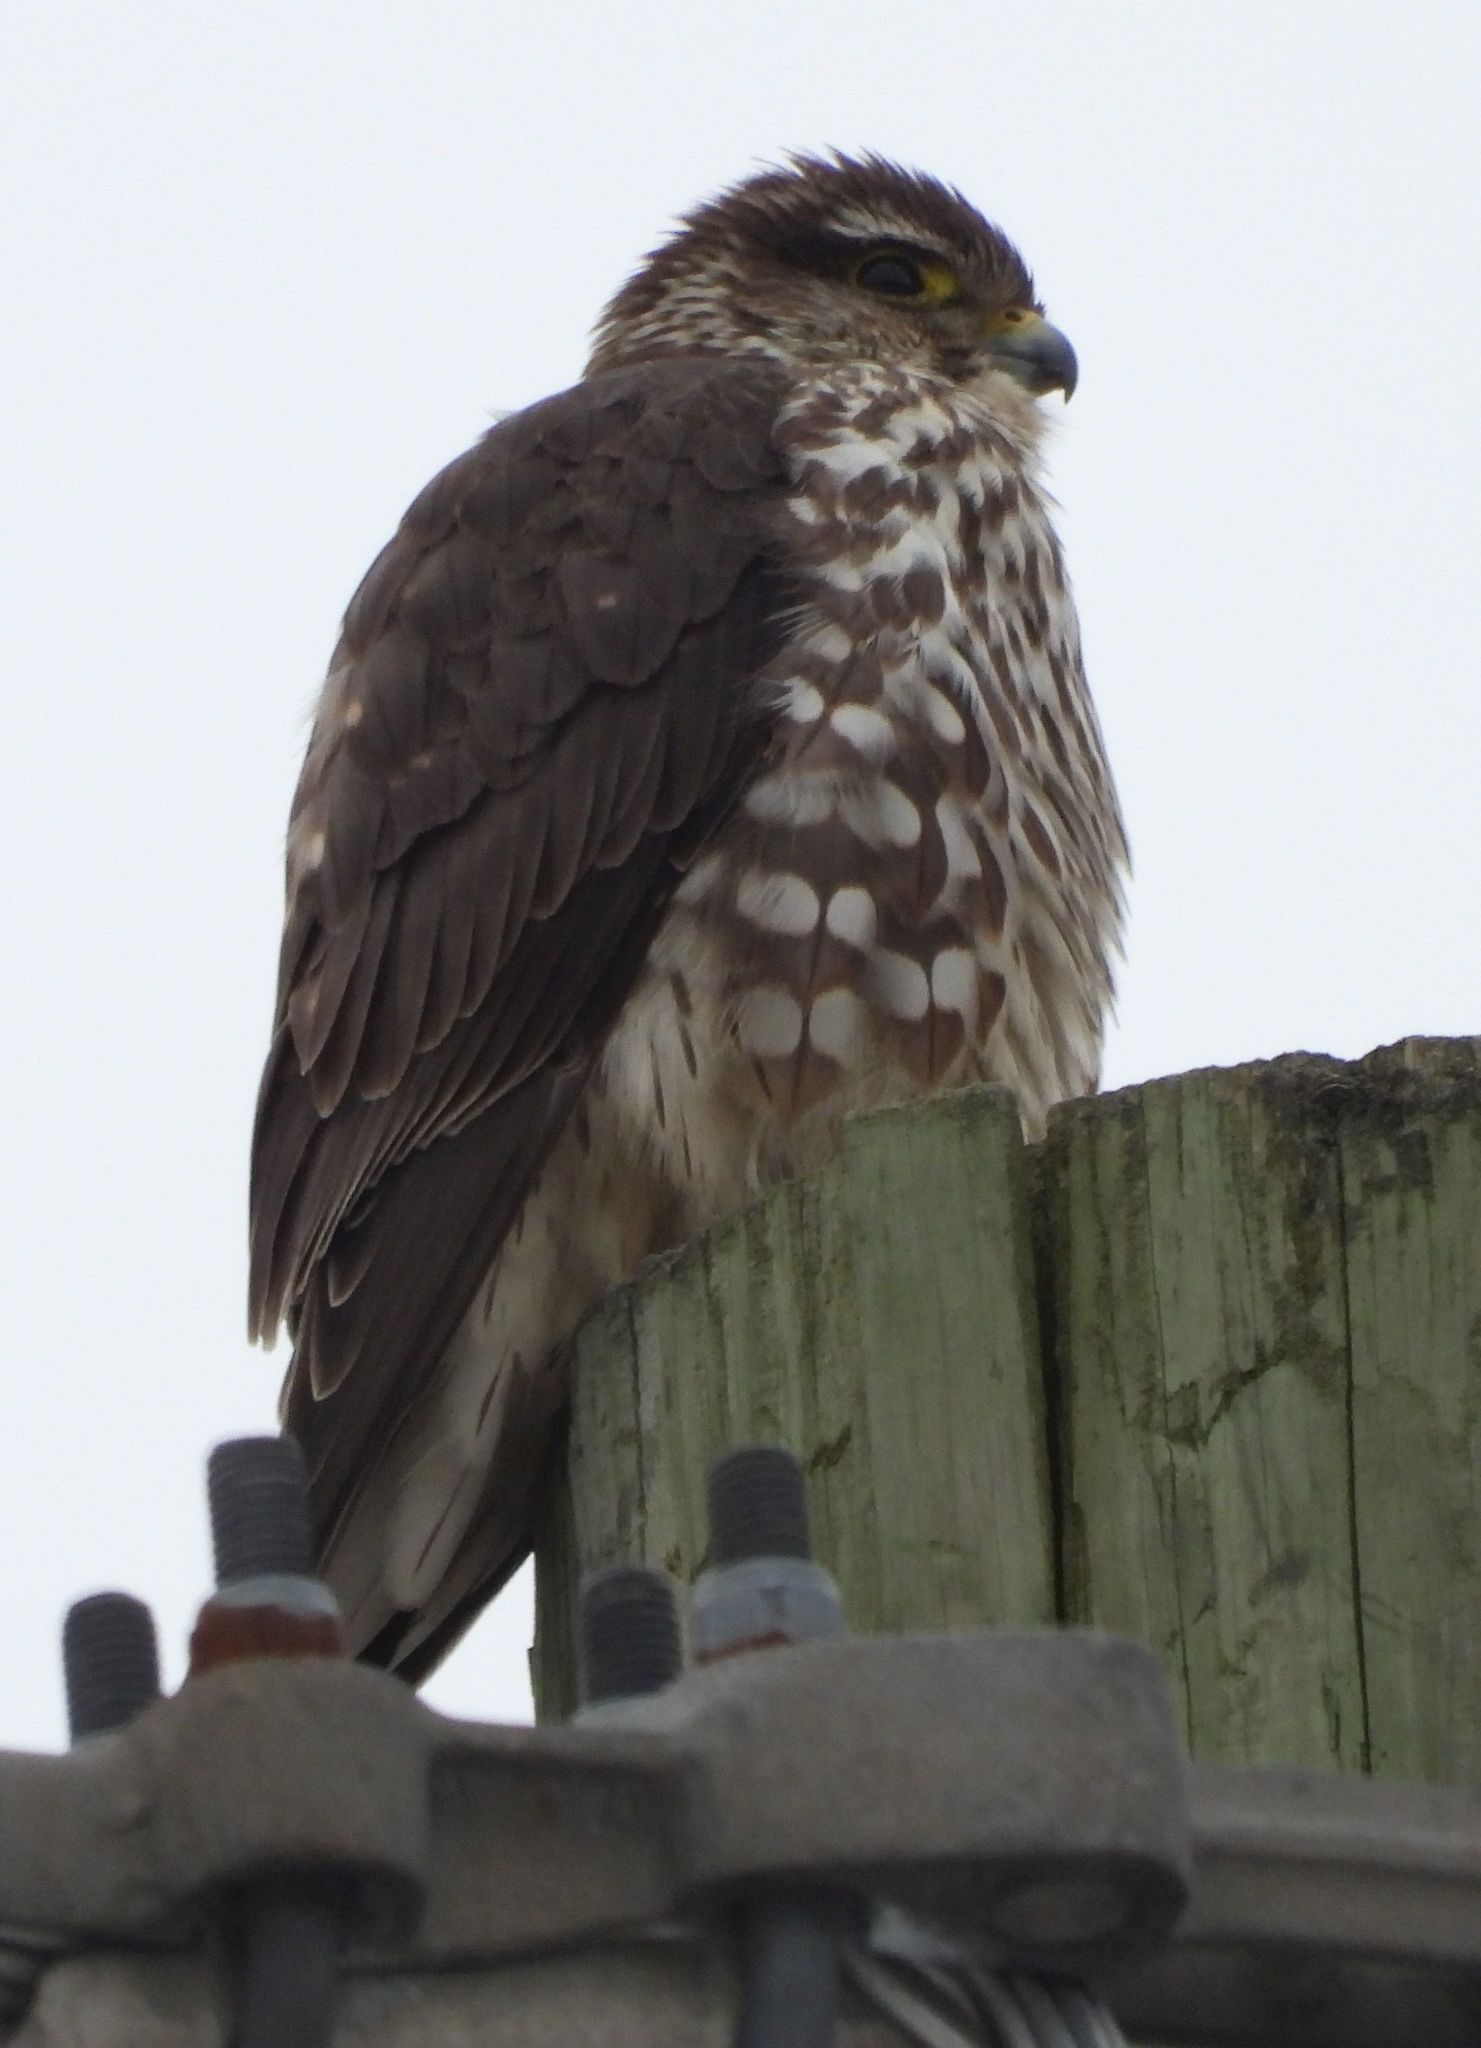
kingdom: Animalia
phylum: Chordata
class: Aves
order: Falconiformes
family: Falconidae
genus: Falco
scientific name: Falco columbarius
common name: Merlin
